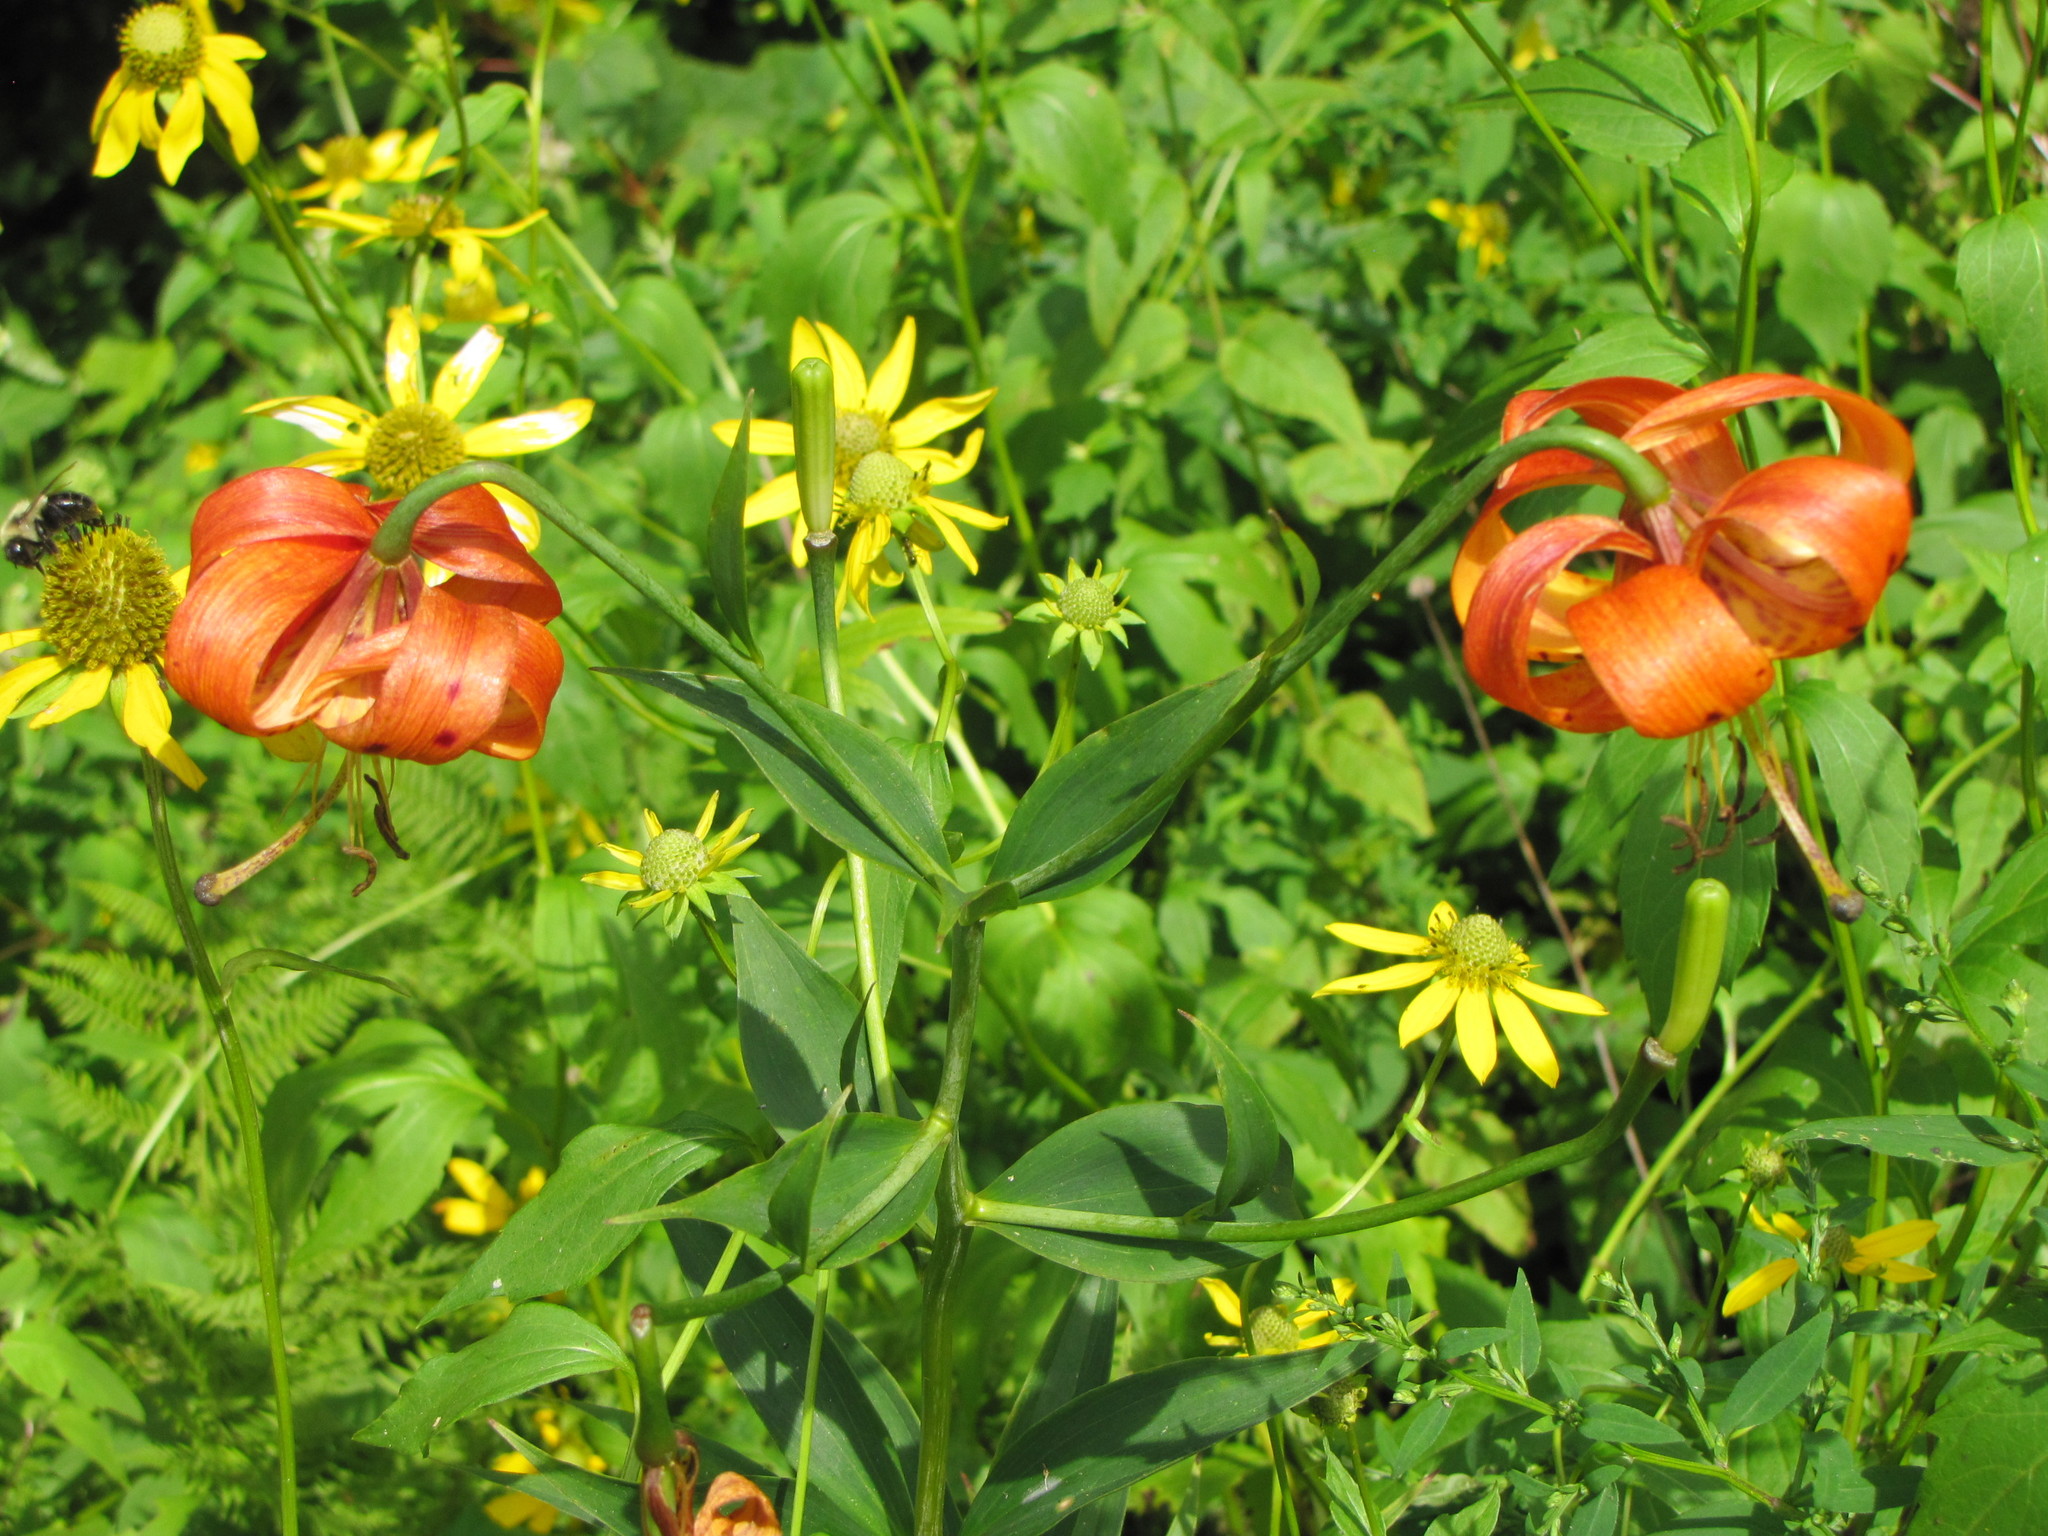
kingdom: Plantae
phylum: Tracheophyta
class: Liliopsida
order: Liliales
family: Liliaceae
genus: Lilium
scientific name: Lilium superbum
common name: American turk's-cap lily
